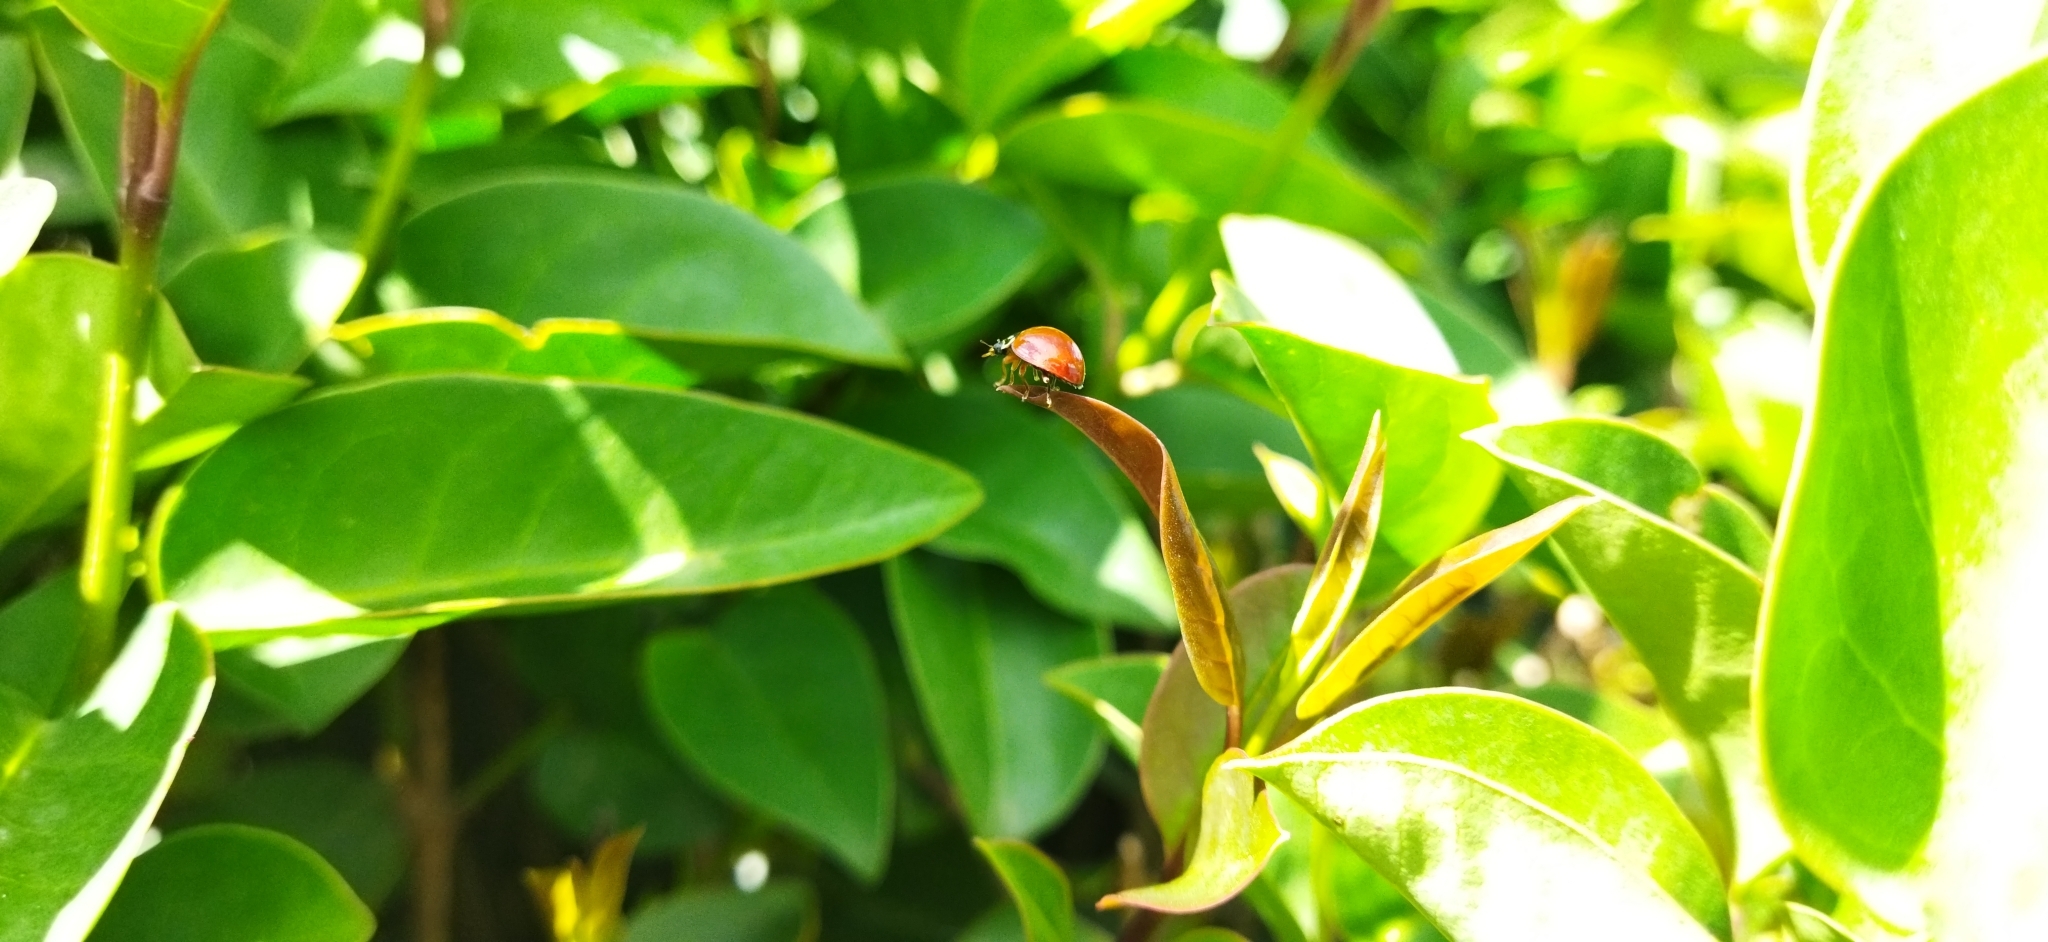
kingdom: Animalia
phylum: Arthropoda
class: Insecta
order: Coleoptera
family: Coccinellidae
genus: Cycloneda
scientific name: Cycloneda sanguinea
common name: Ladybird beetle
